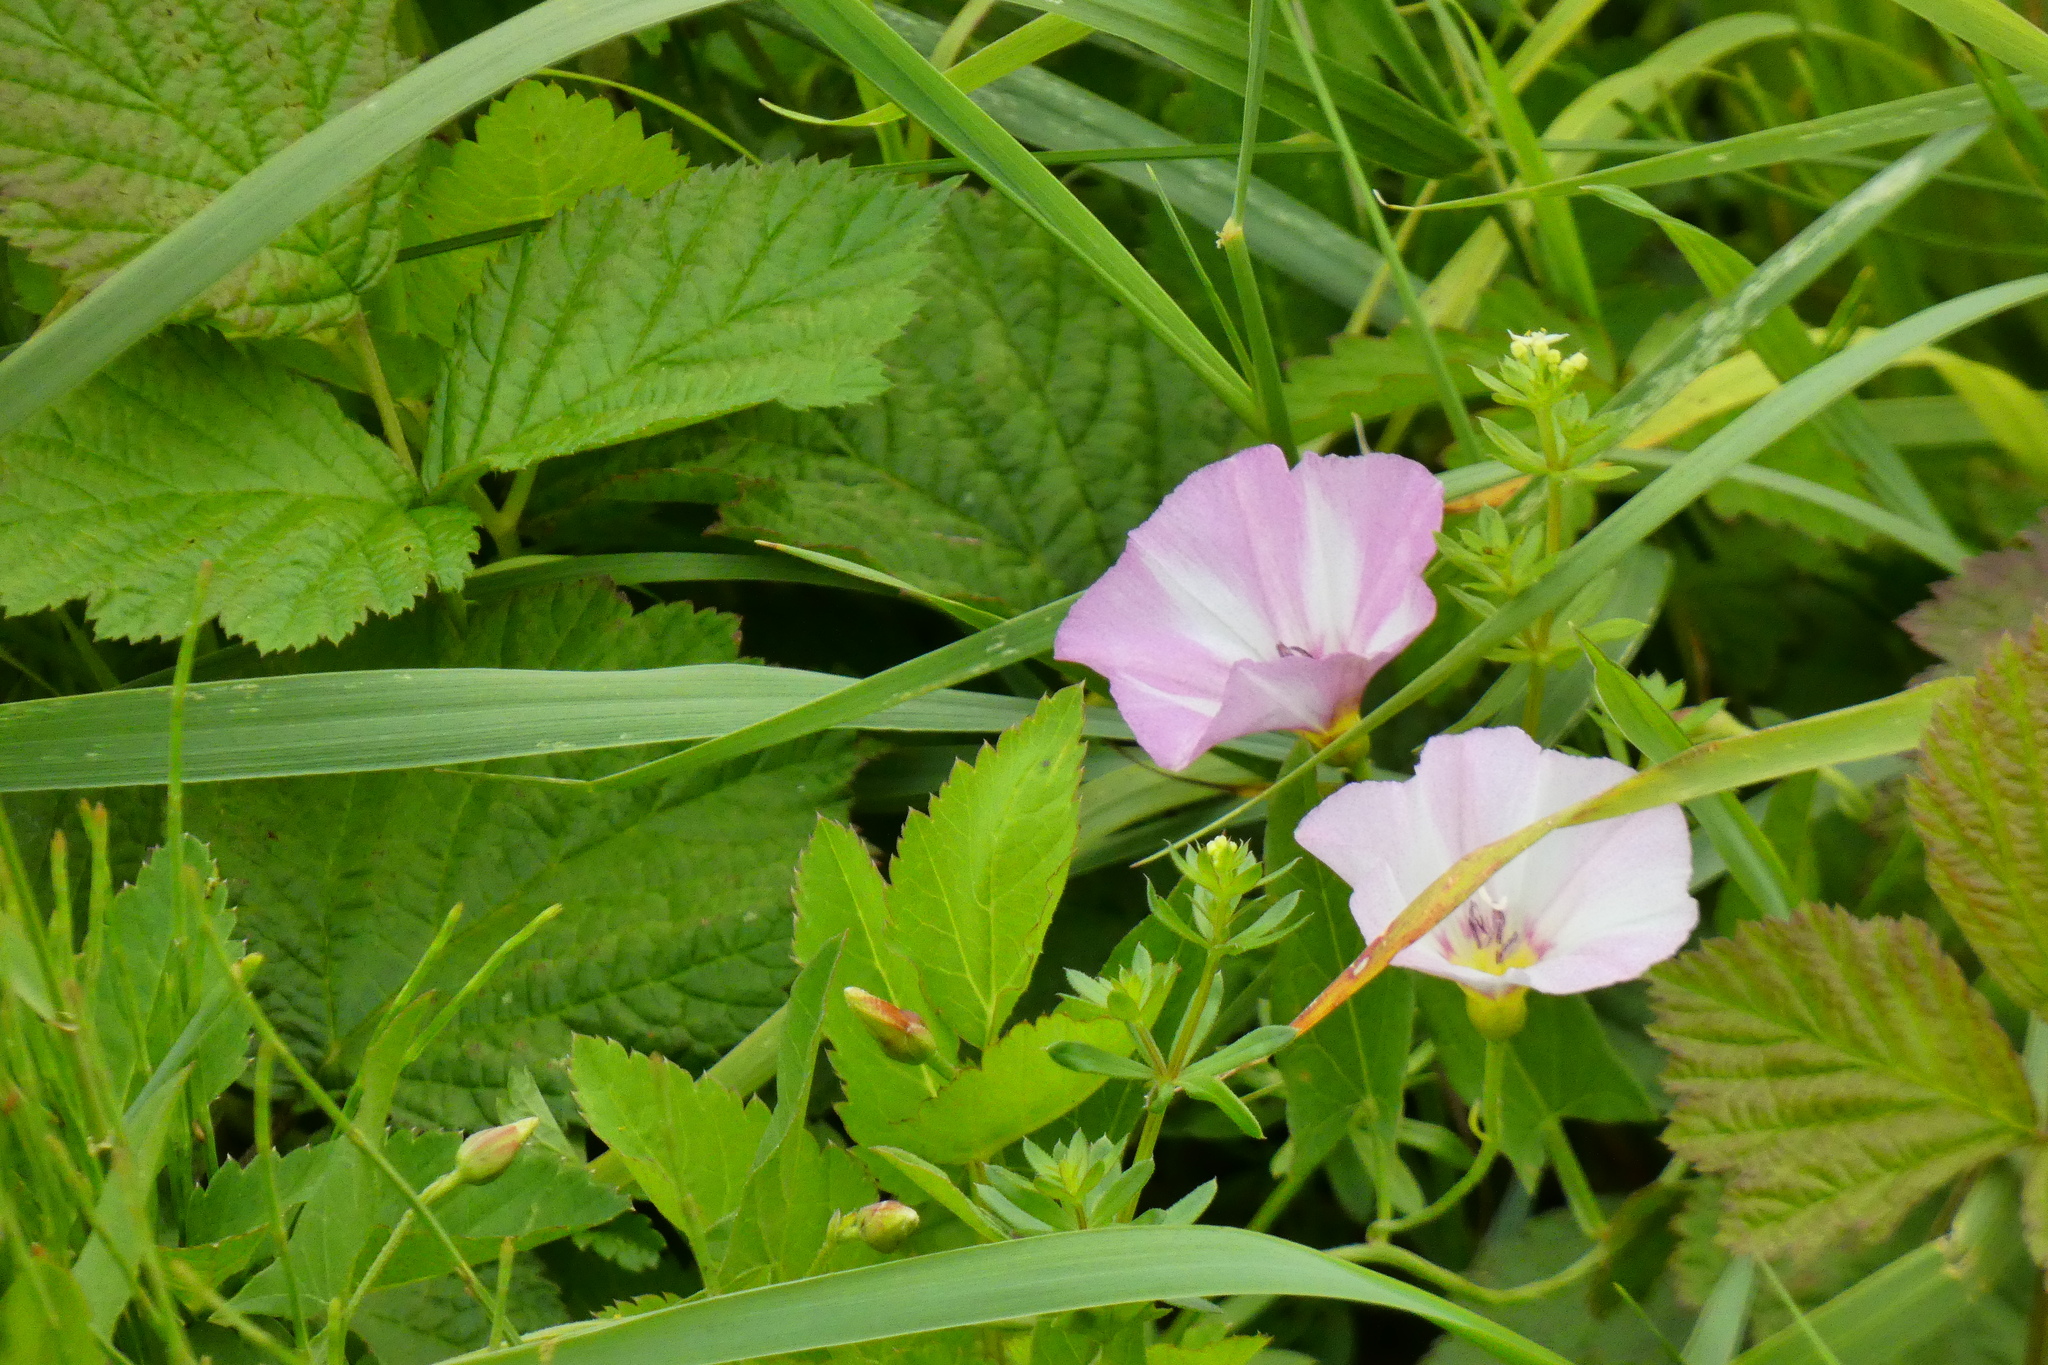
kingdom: Plantae
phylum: Tracheophyta
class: Magnoliopsida
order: Solanales
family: Convolvulaceae
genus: Convolvulus
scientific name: Convolvulus arvensis
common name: Field bindweed
